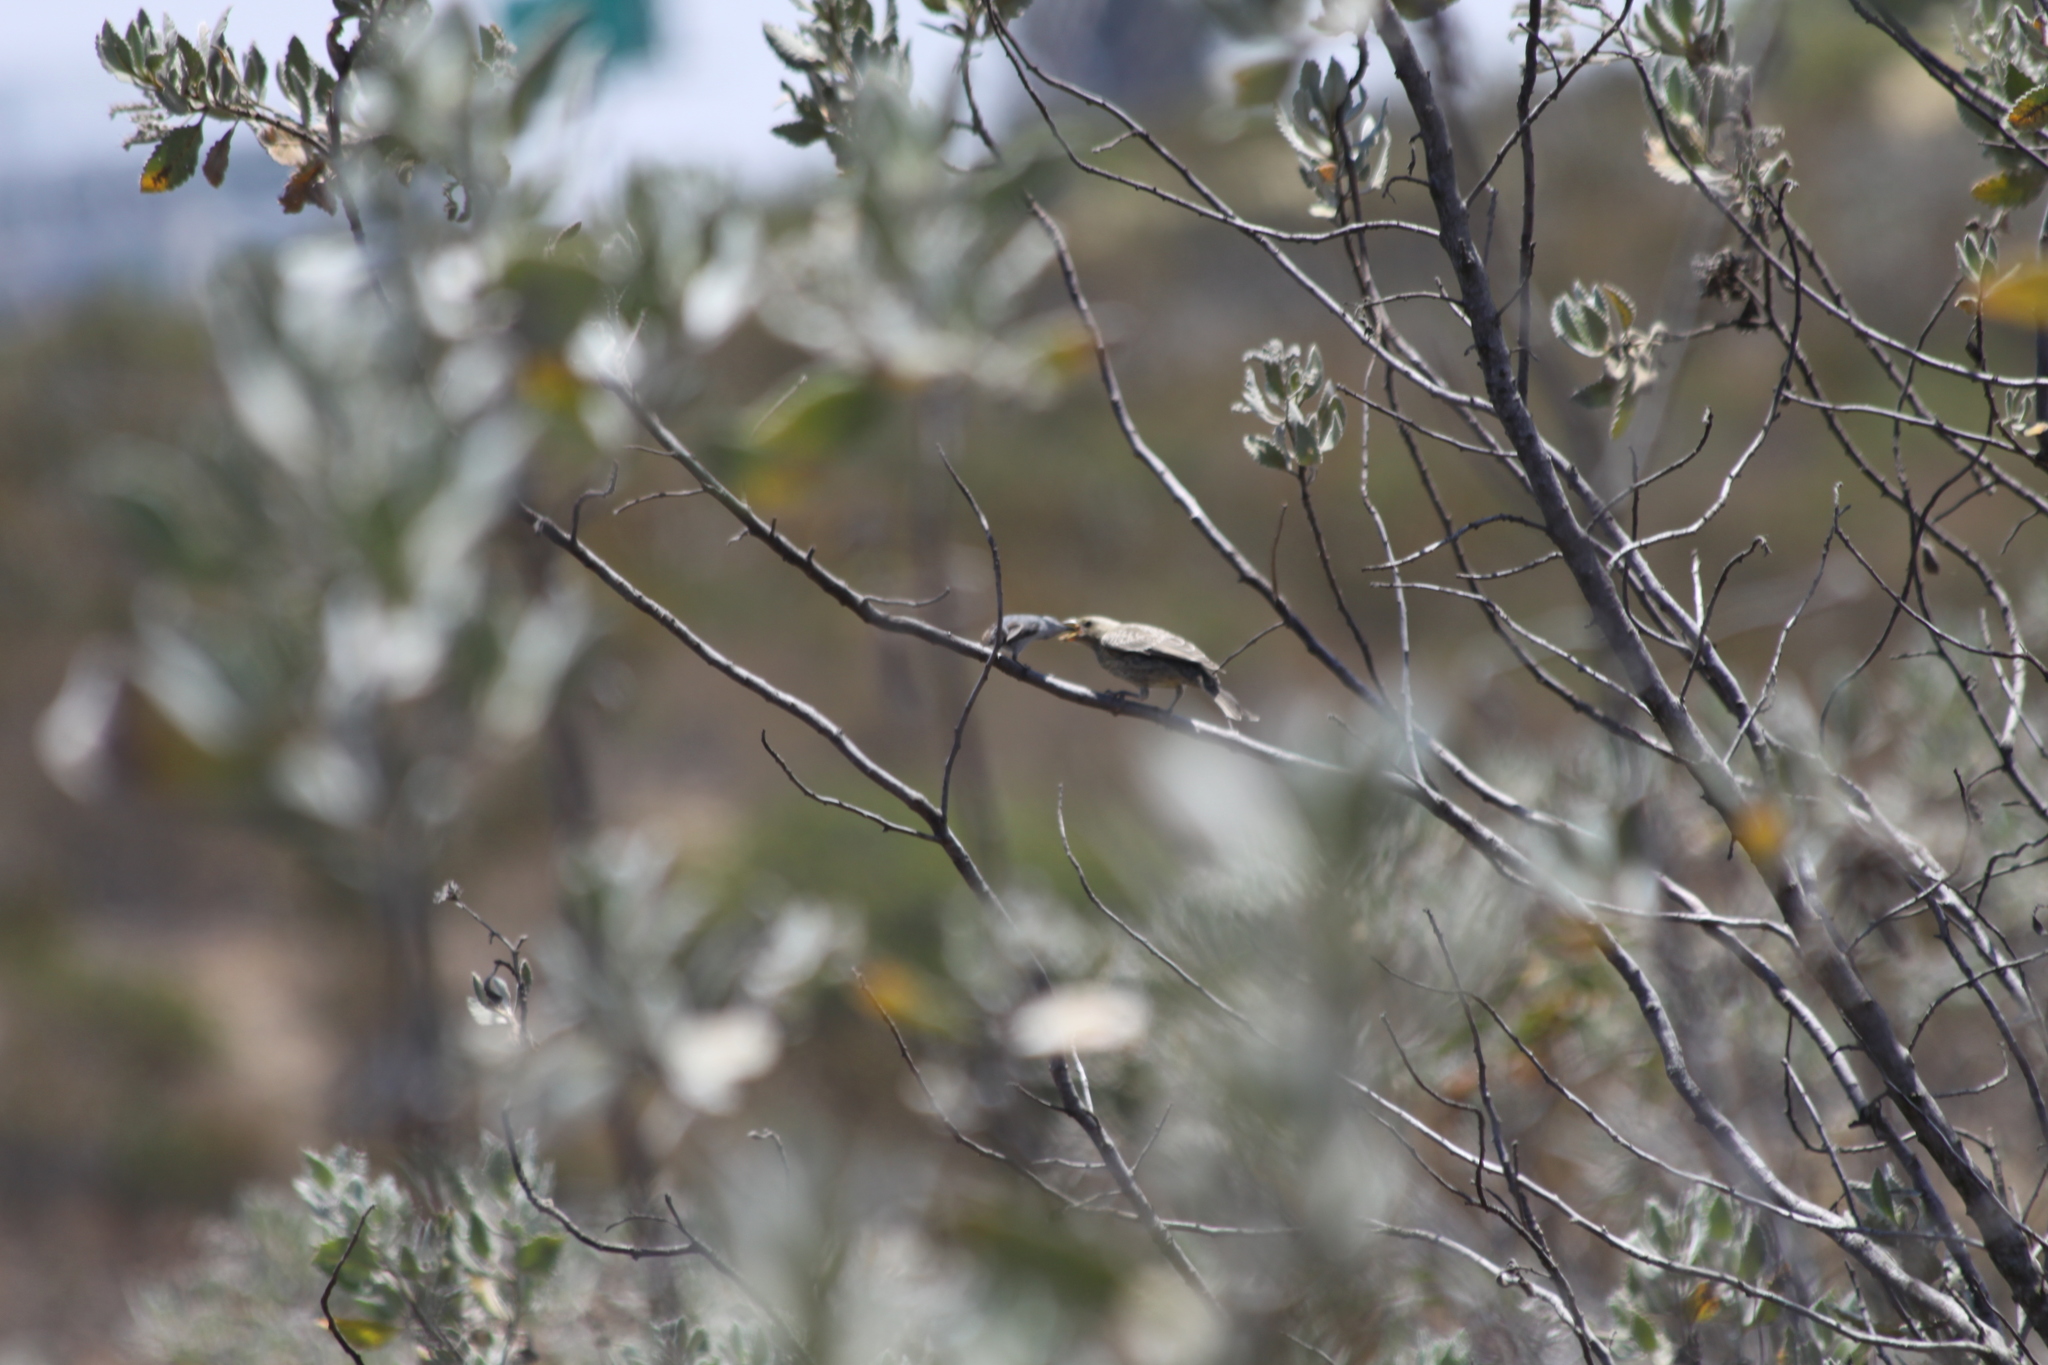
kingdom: Animalia
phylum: Chordata
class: Aves
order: Passeriformes
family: Icteridae
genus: Molothrus
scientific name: Molothrus ater
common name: Brown-headed cowbird
